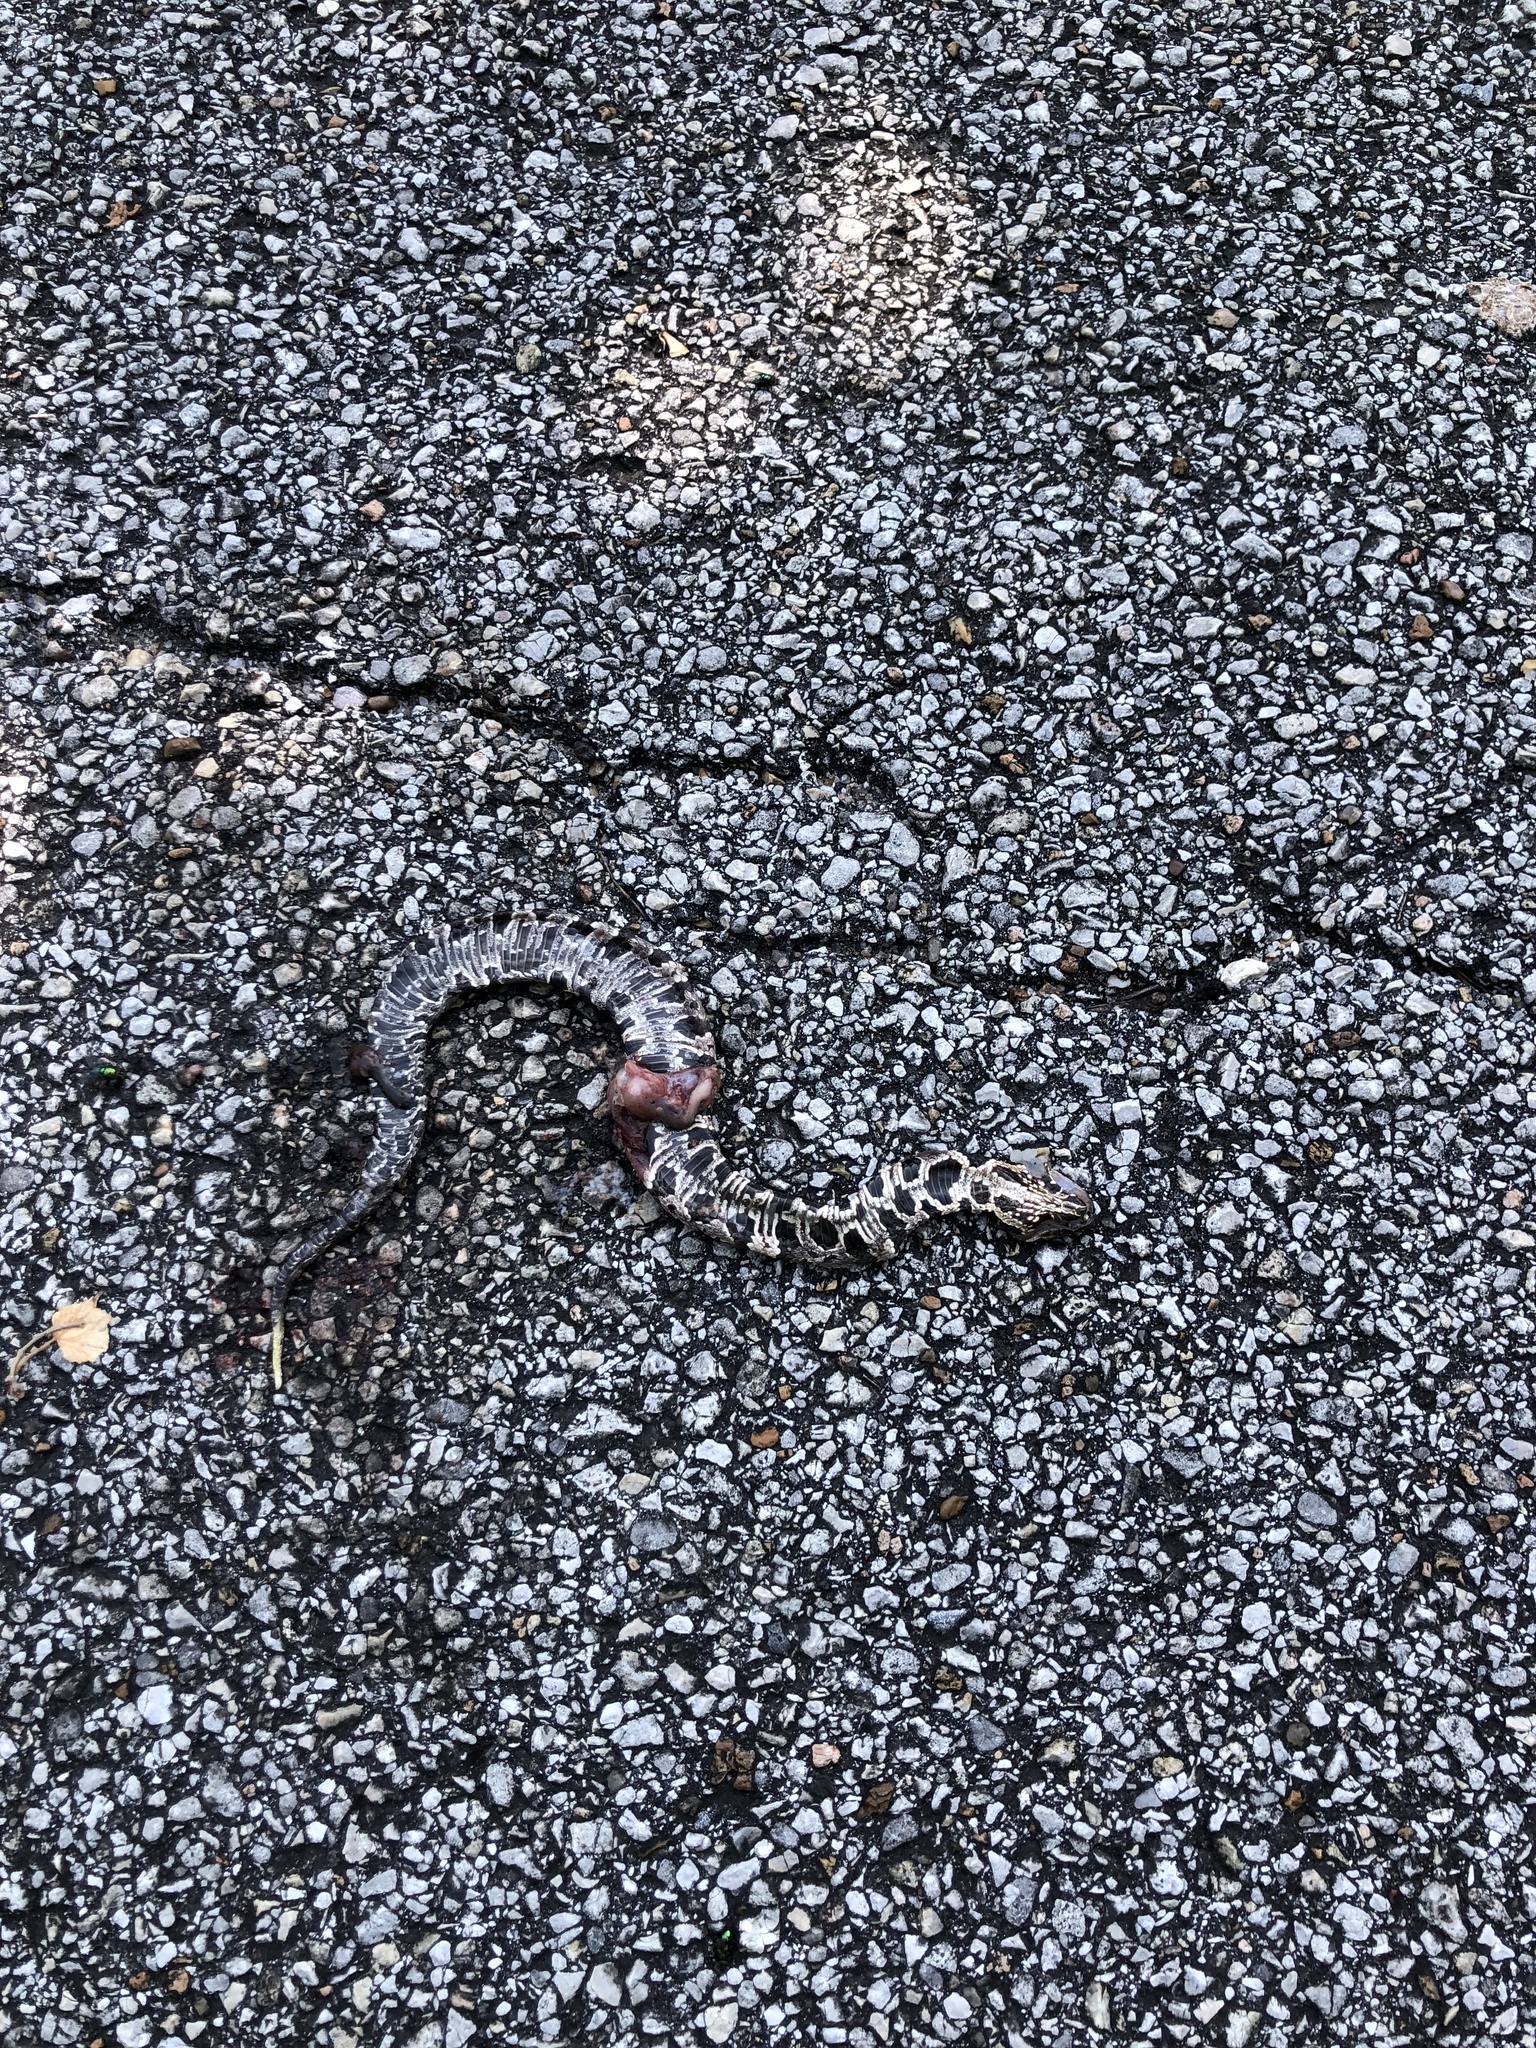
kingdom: Animalia
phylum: Chordata
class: Squamata
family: Viperidae
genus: Agkistrodon
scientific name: Agkistrodon piscivorus
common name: Cottonmouth
